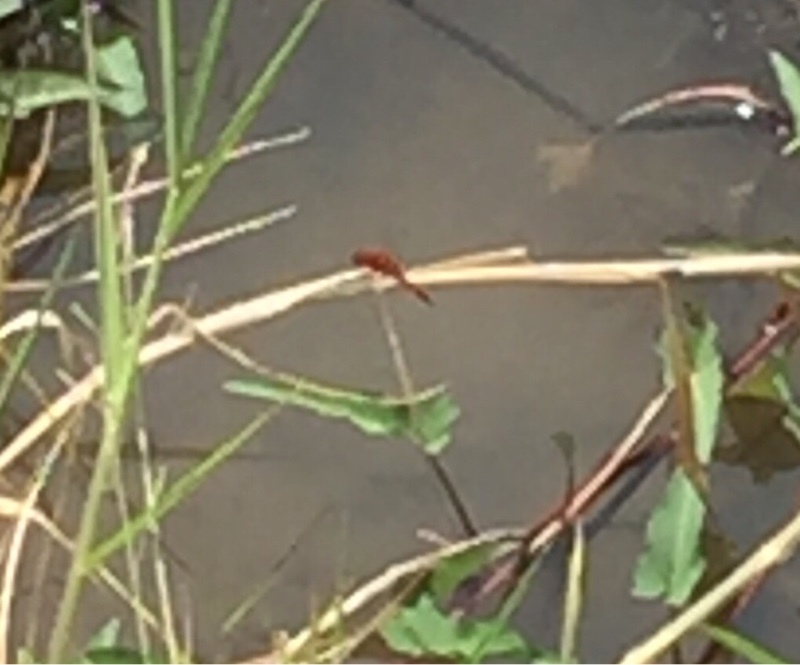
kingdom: Animalia
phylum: Arthropoda
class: Insecta
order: Odonata
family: Libellulidae
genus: Crocothemis
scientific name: Crocothemis servilia
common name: Scarlet skimmer
